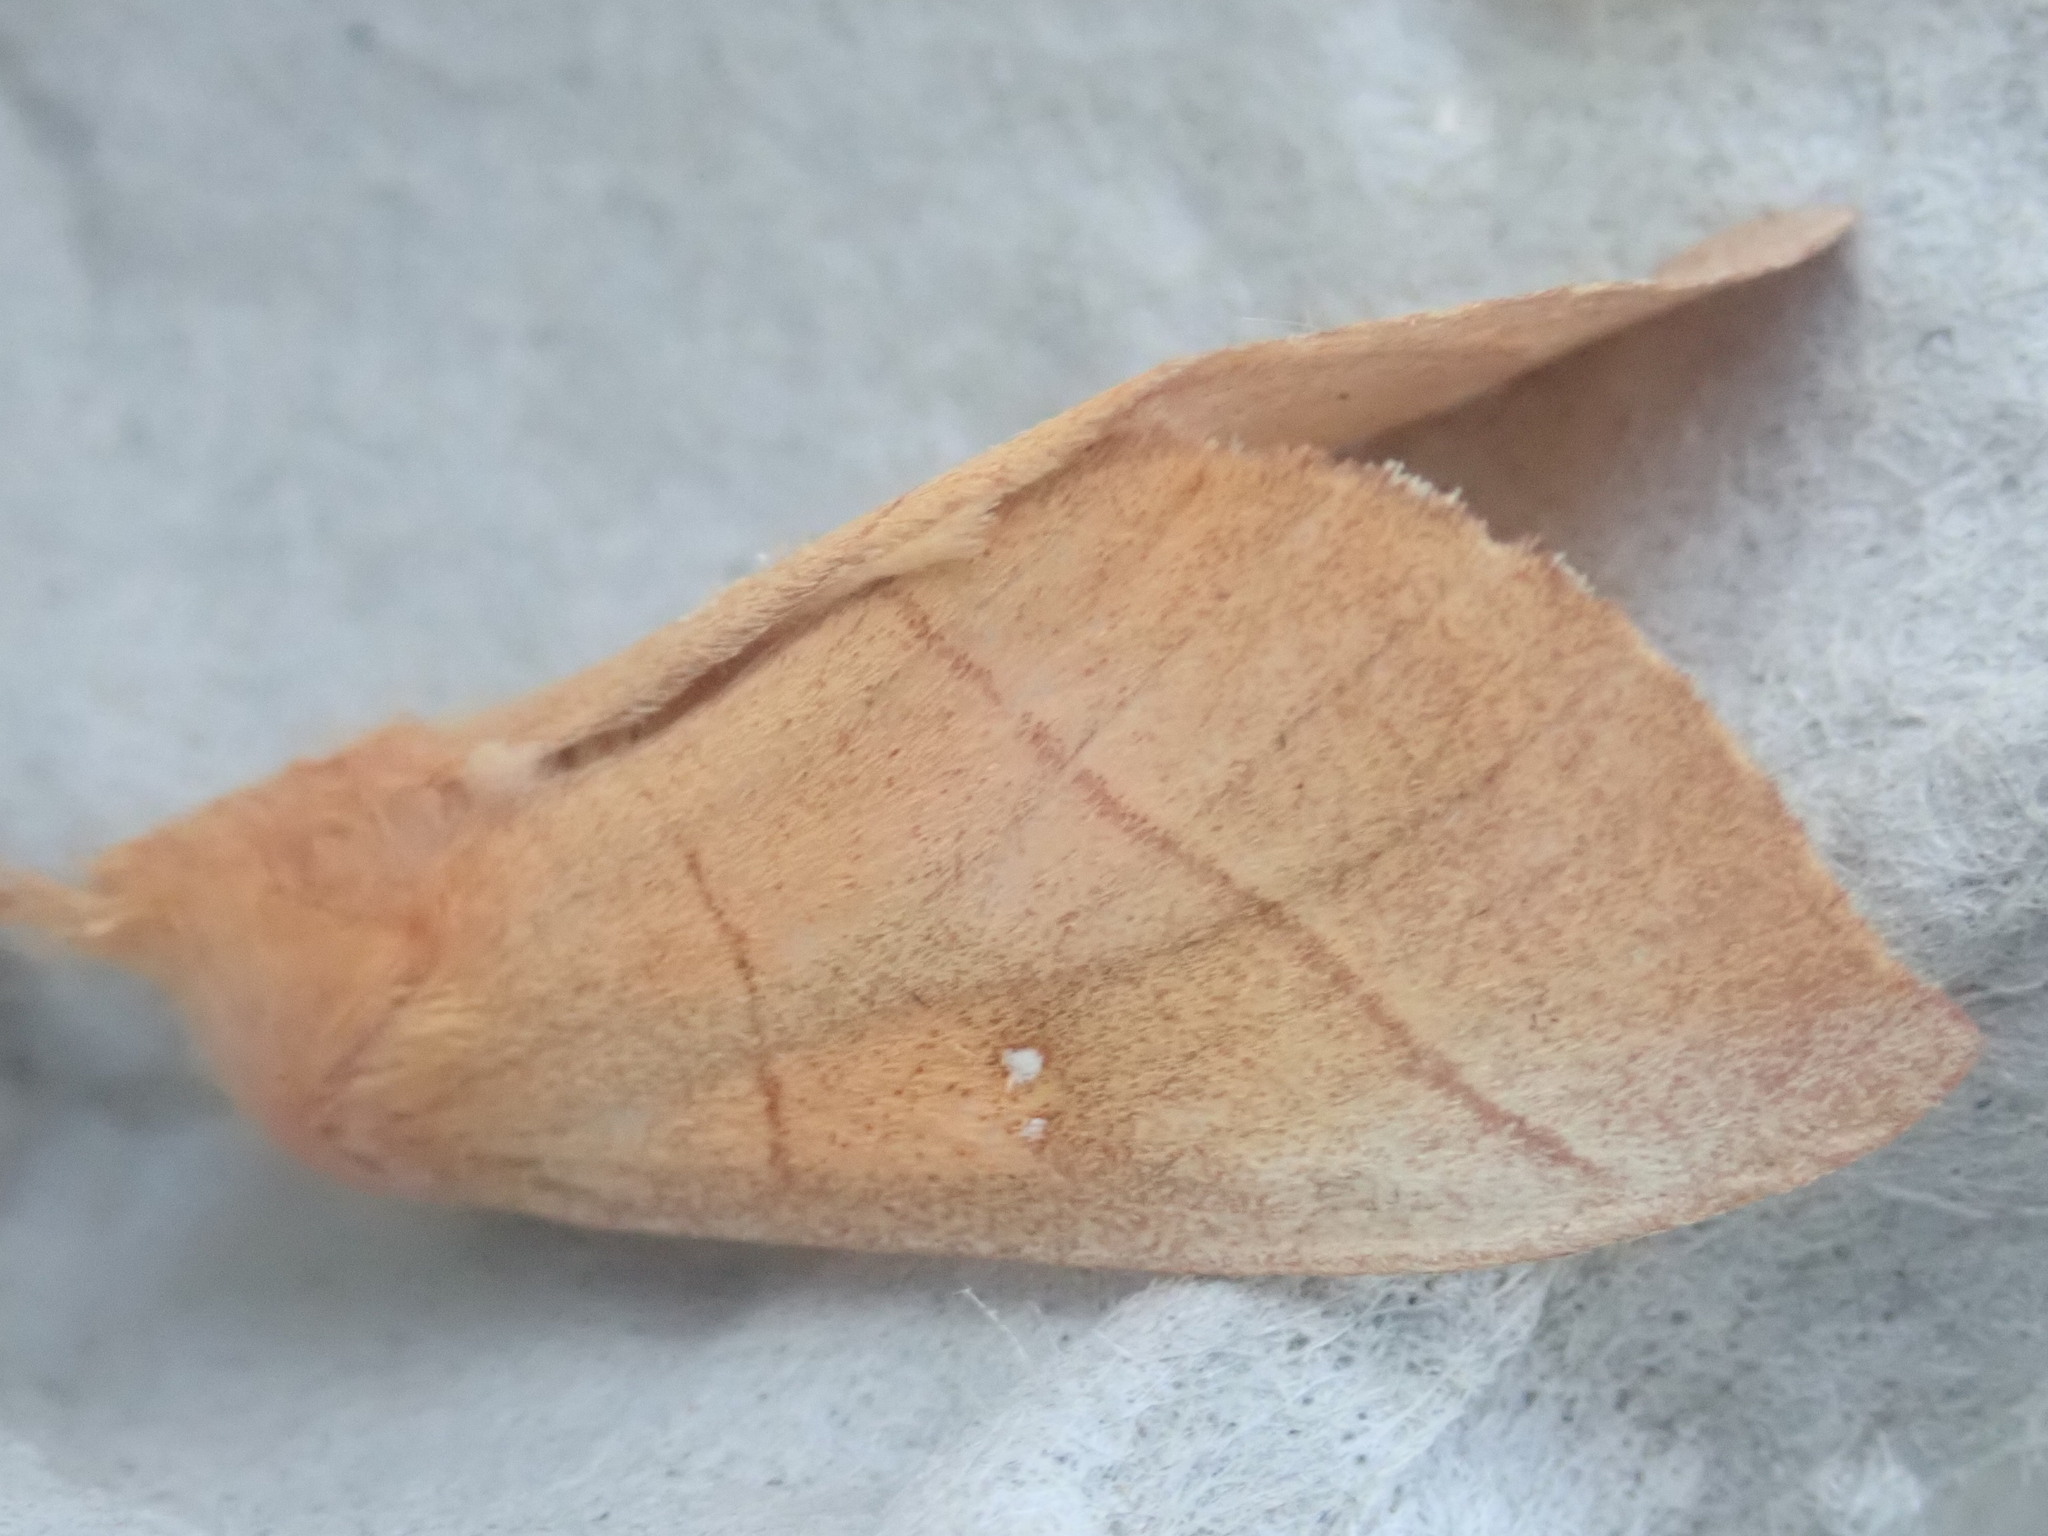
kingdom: Animalia
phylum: Arthropoda
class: Insecta
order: Lepidoptera
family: Notodontidae
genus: Nadata
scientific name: Nadata gibbosa
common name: White-dotted prominent
